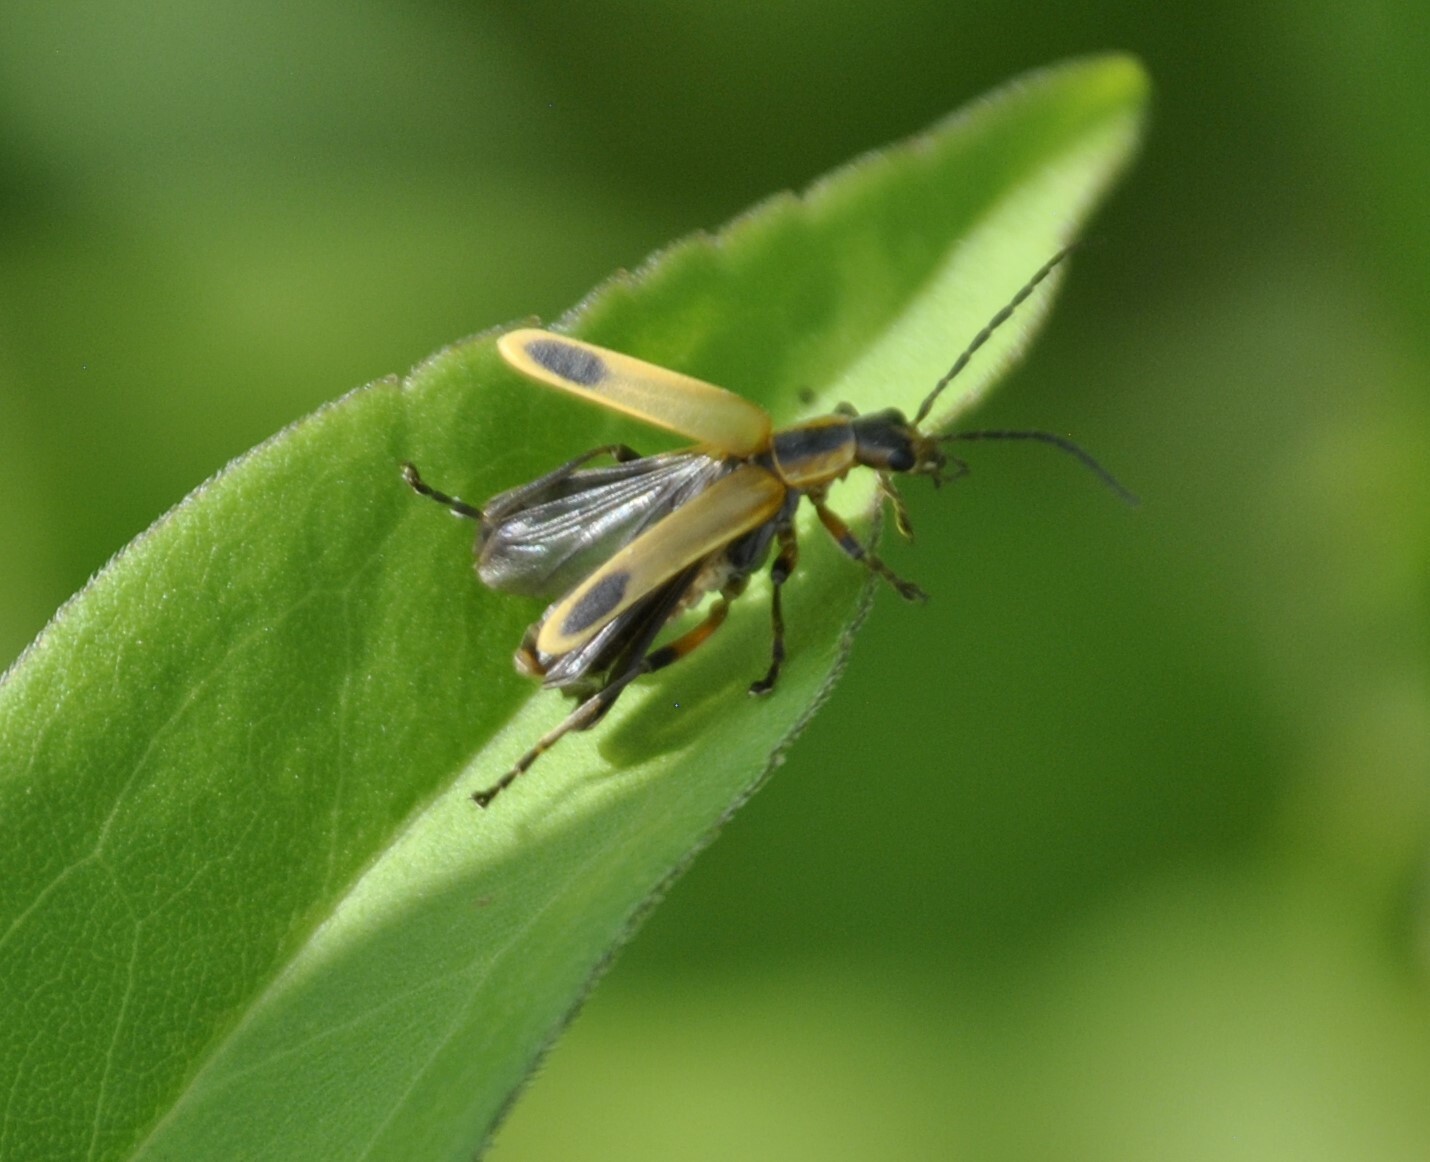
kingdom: Animalia
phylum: Arthropoda
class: Insecta
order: Coleoptera
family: Cantharidae
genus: Chauliognathus
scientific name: Chauliognathus marginatus
